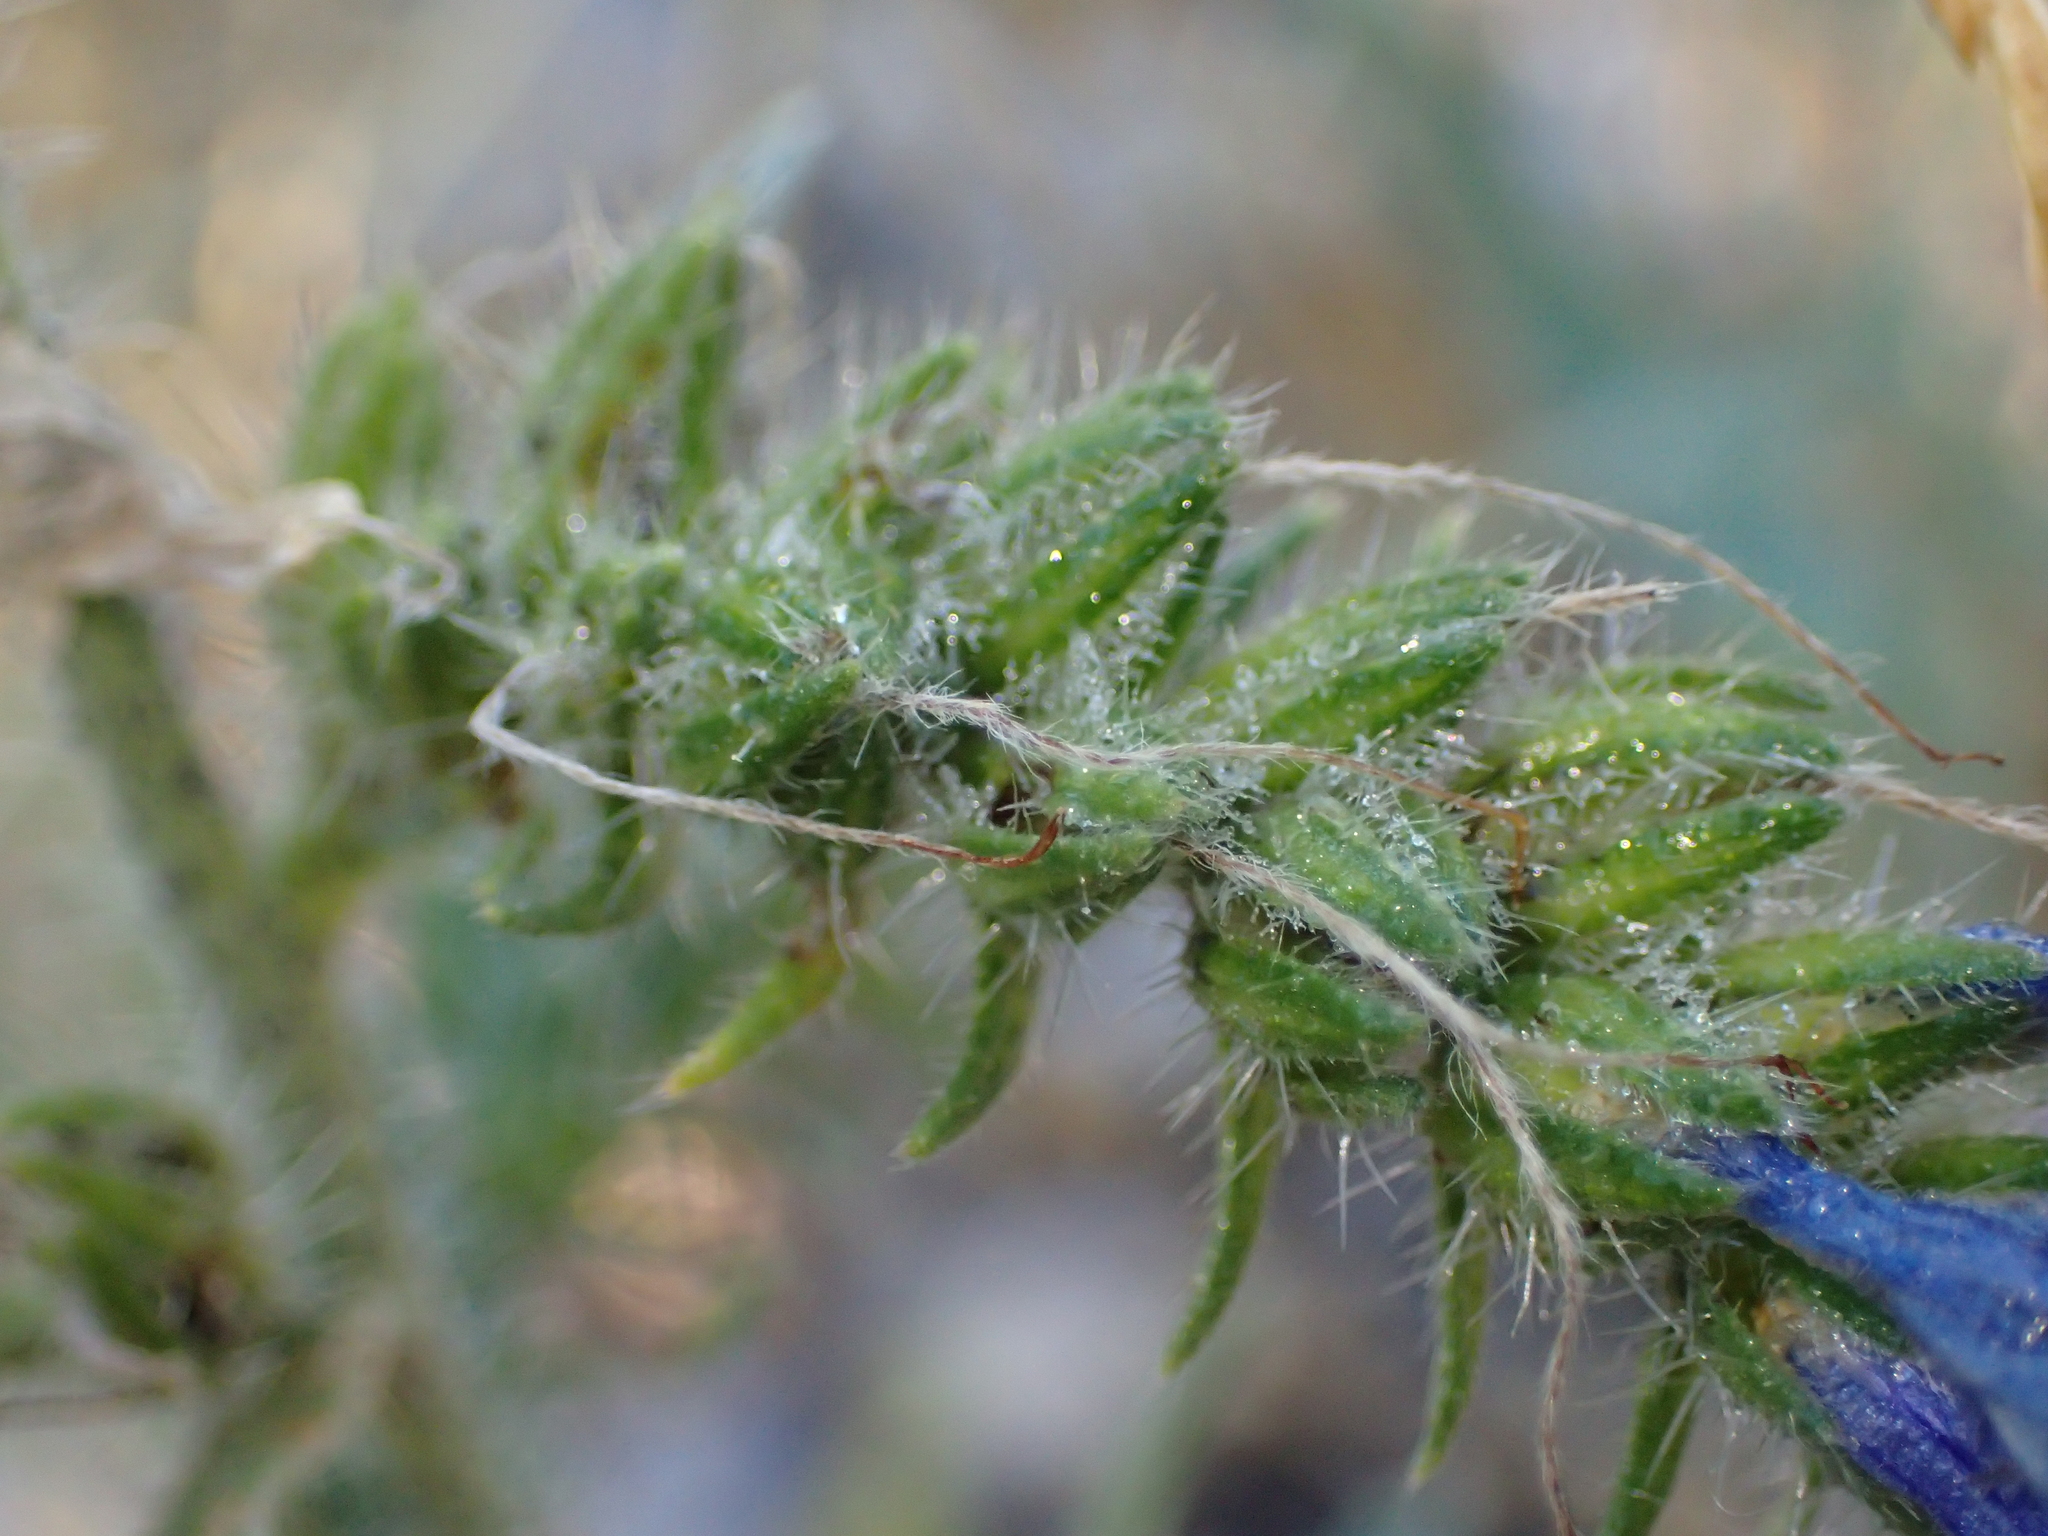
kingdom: Plantae
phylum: Tracheophyta
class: Magnoliopsida
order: Boraginales
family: Boraginaceae
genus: Echium
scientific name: Echium vulgare
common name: Common viper's bugloss
